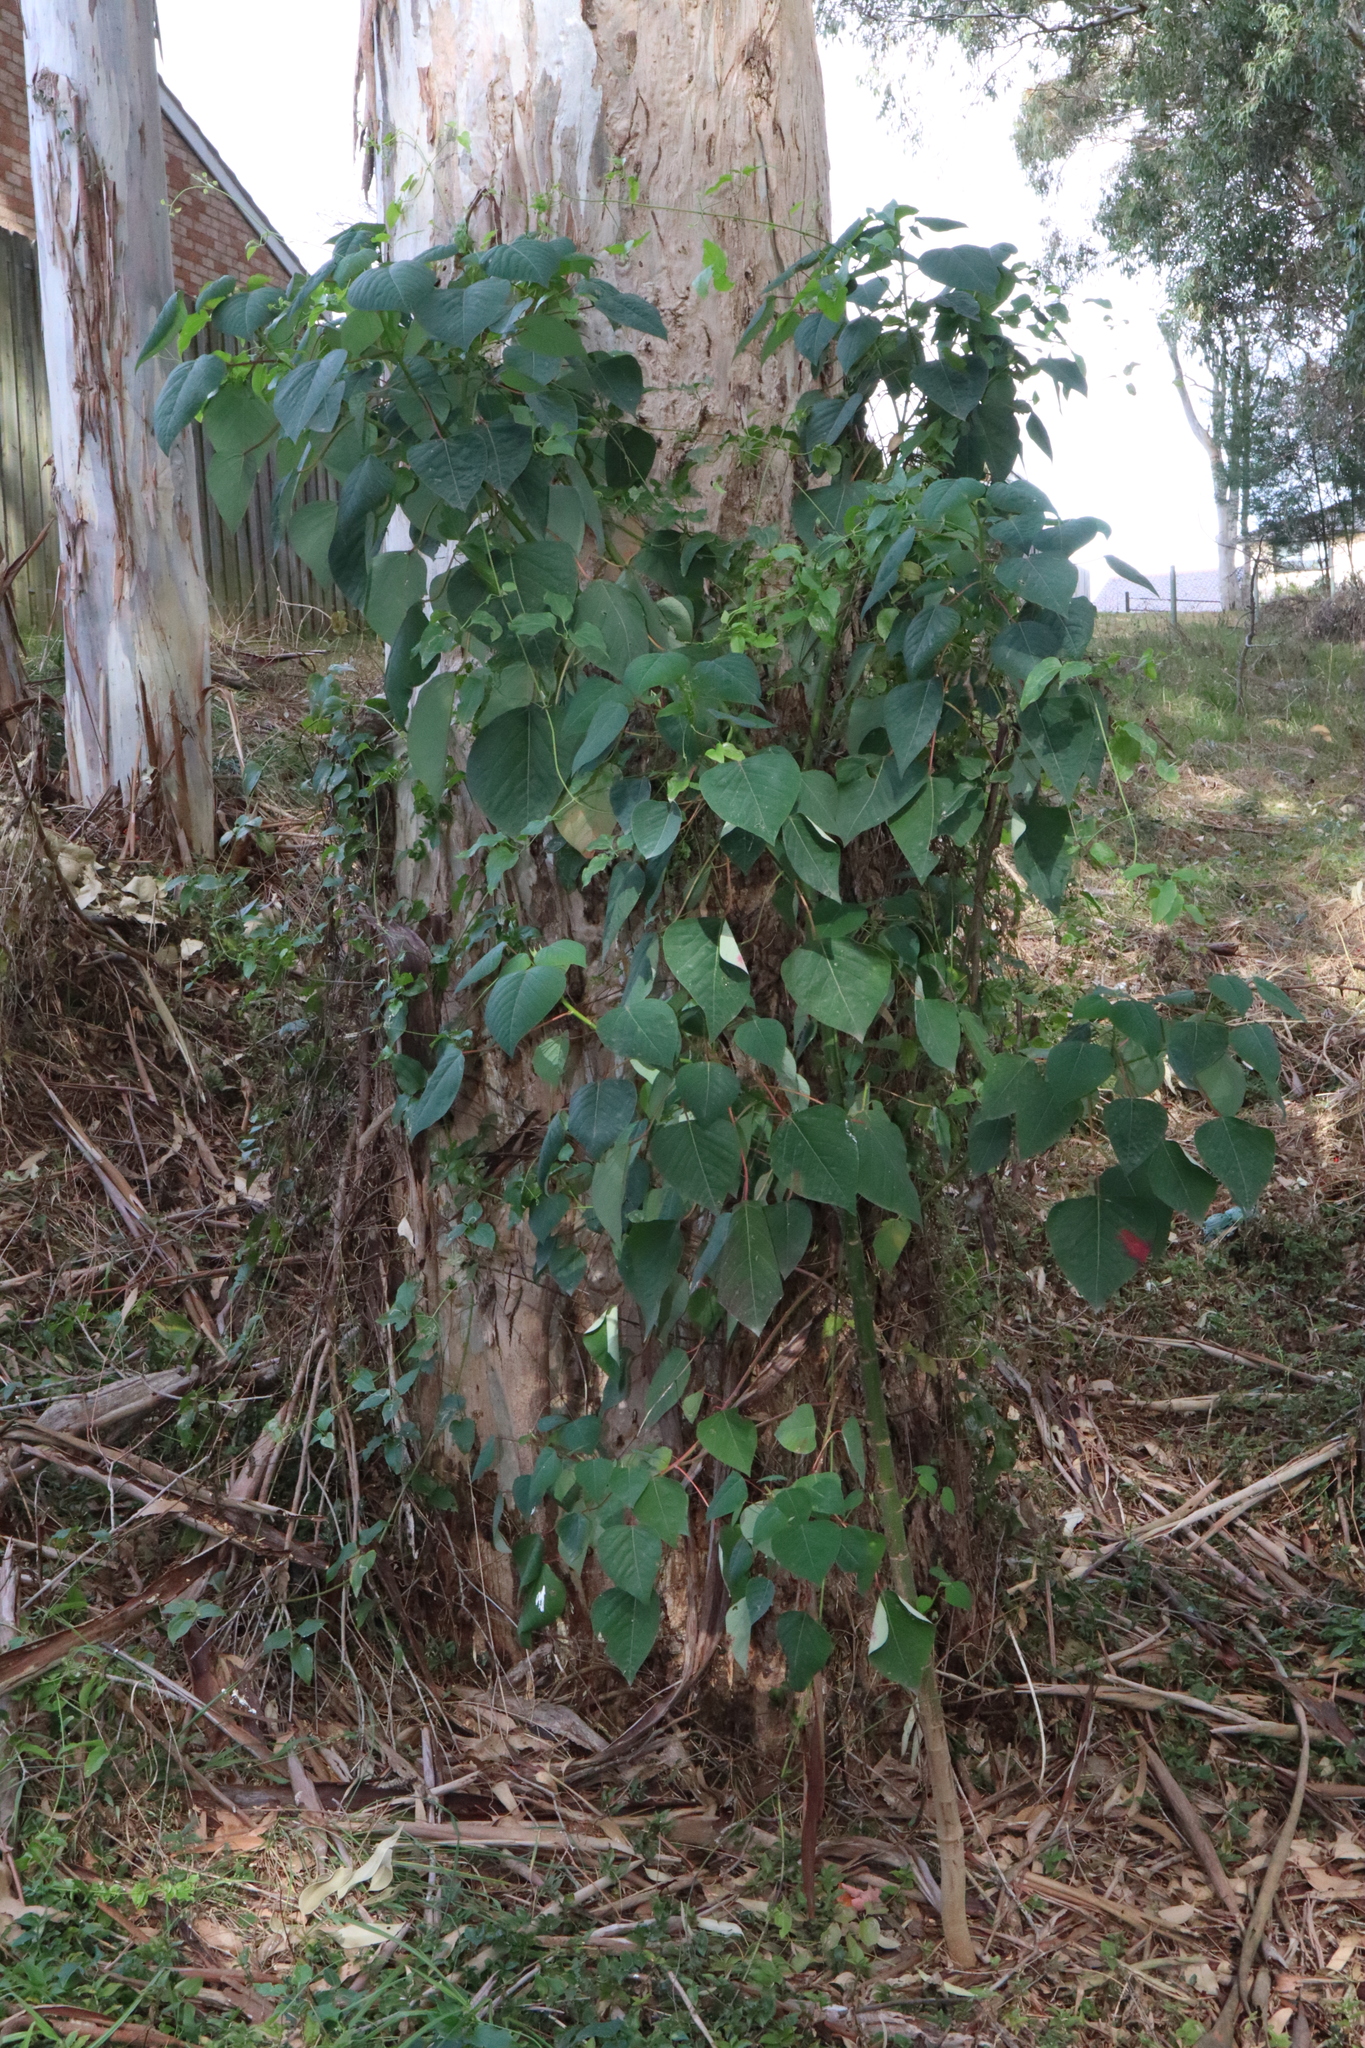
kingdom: Plantae
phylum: Tracheophyta
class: Magnoliopsida
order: Malpighiales
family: Euphorbiaceae
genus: Homalanthus
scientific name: Homalanthus populifolius
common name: Queensland poplar
